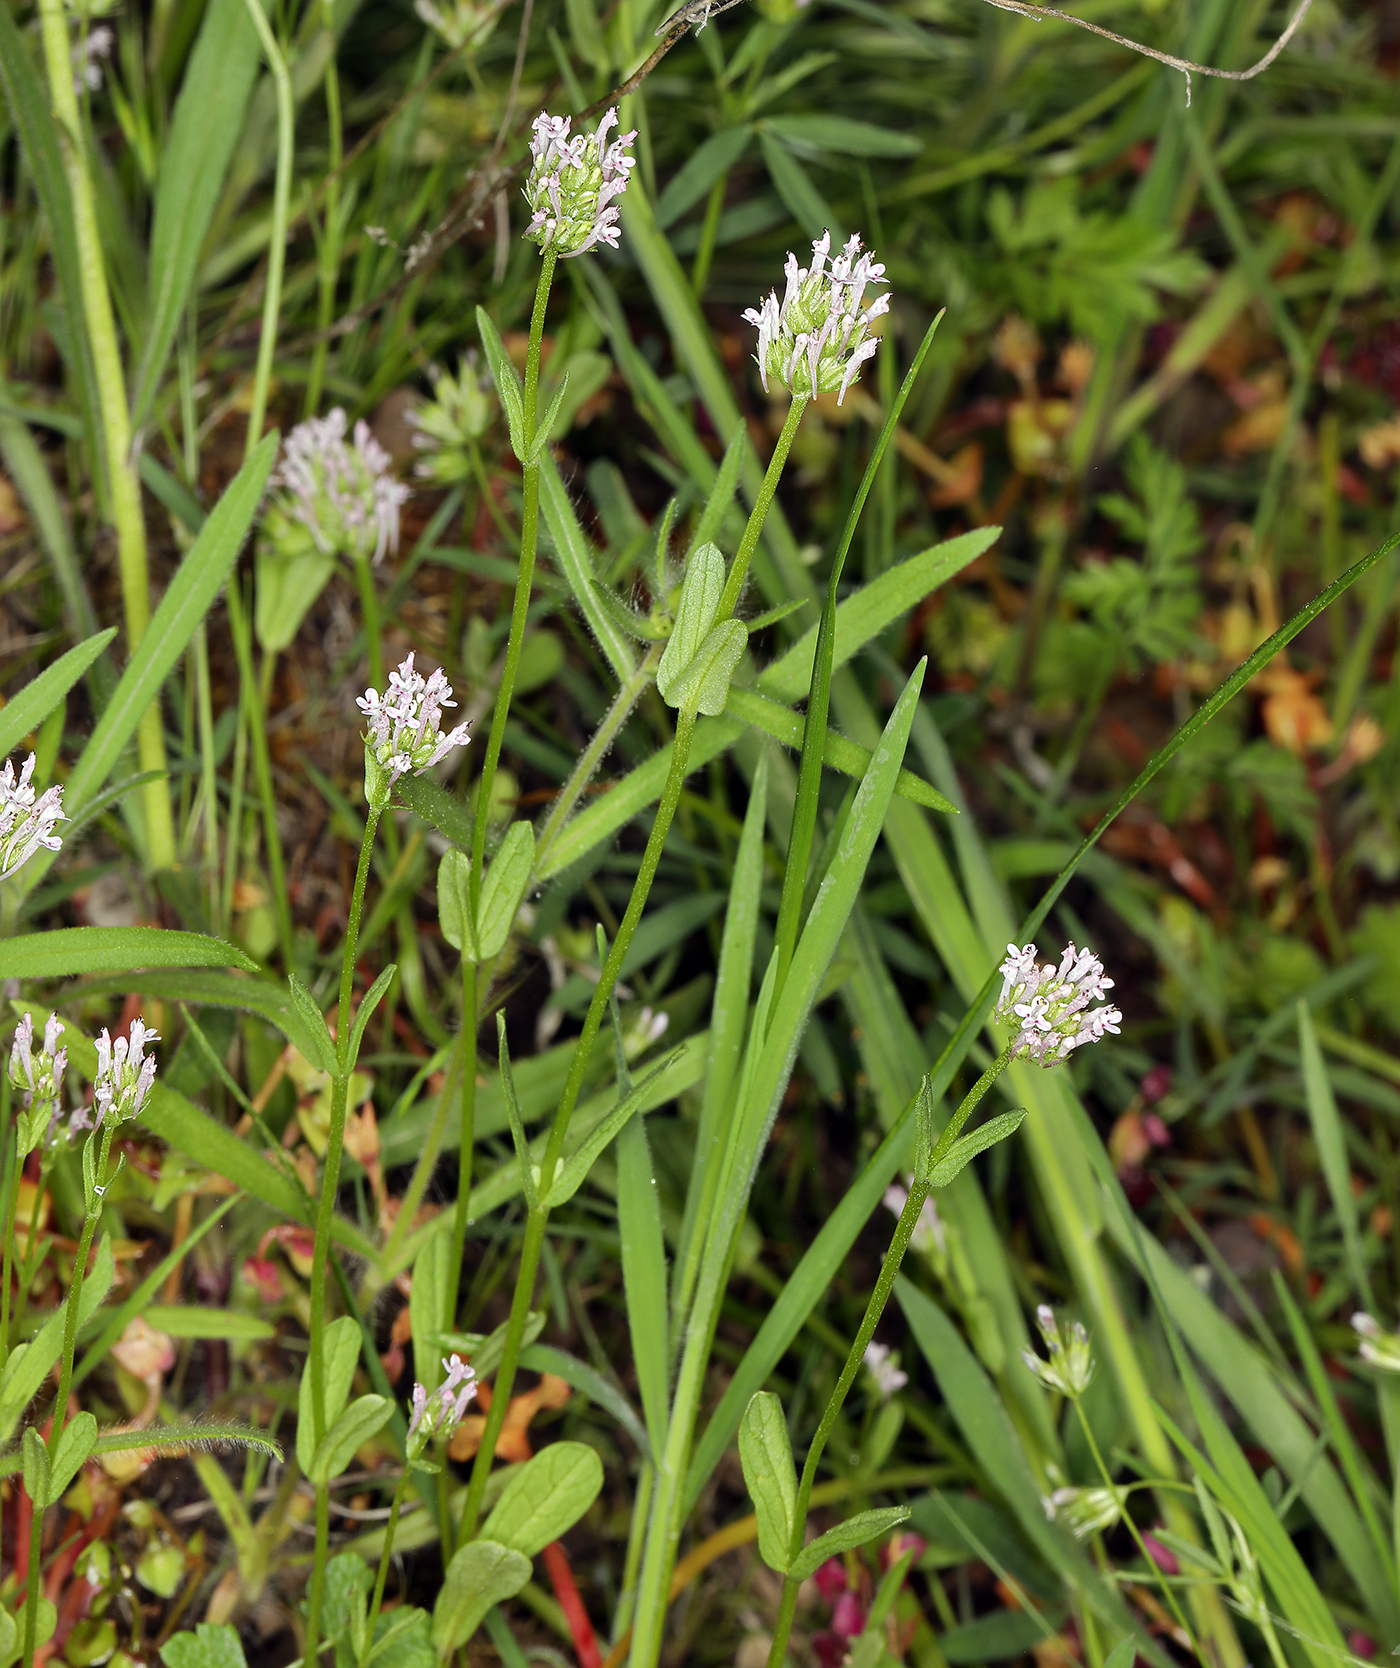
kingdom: Plantae
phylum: Tracheophyta
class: Magnoliopsida
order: Dipsacales
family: Caprifoliaceae
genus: Plectritis
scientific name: Plectritis ciliosa
